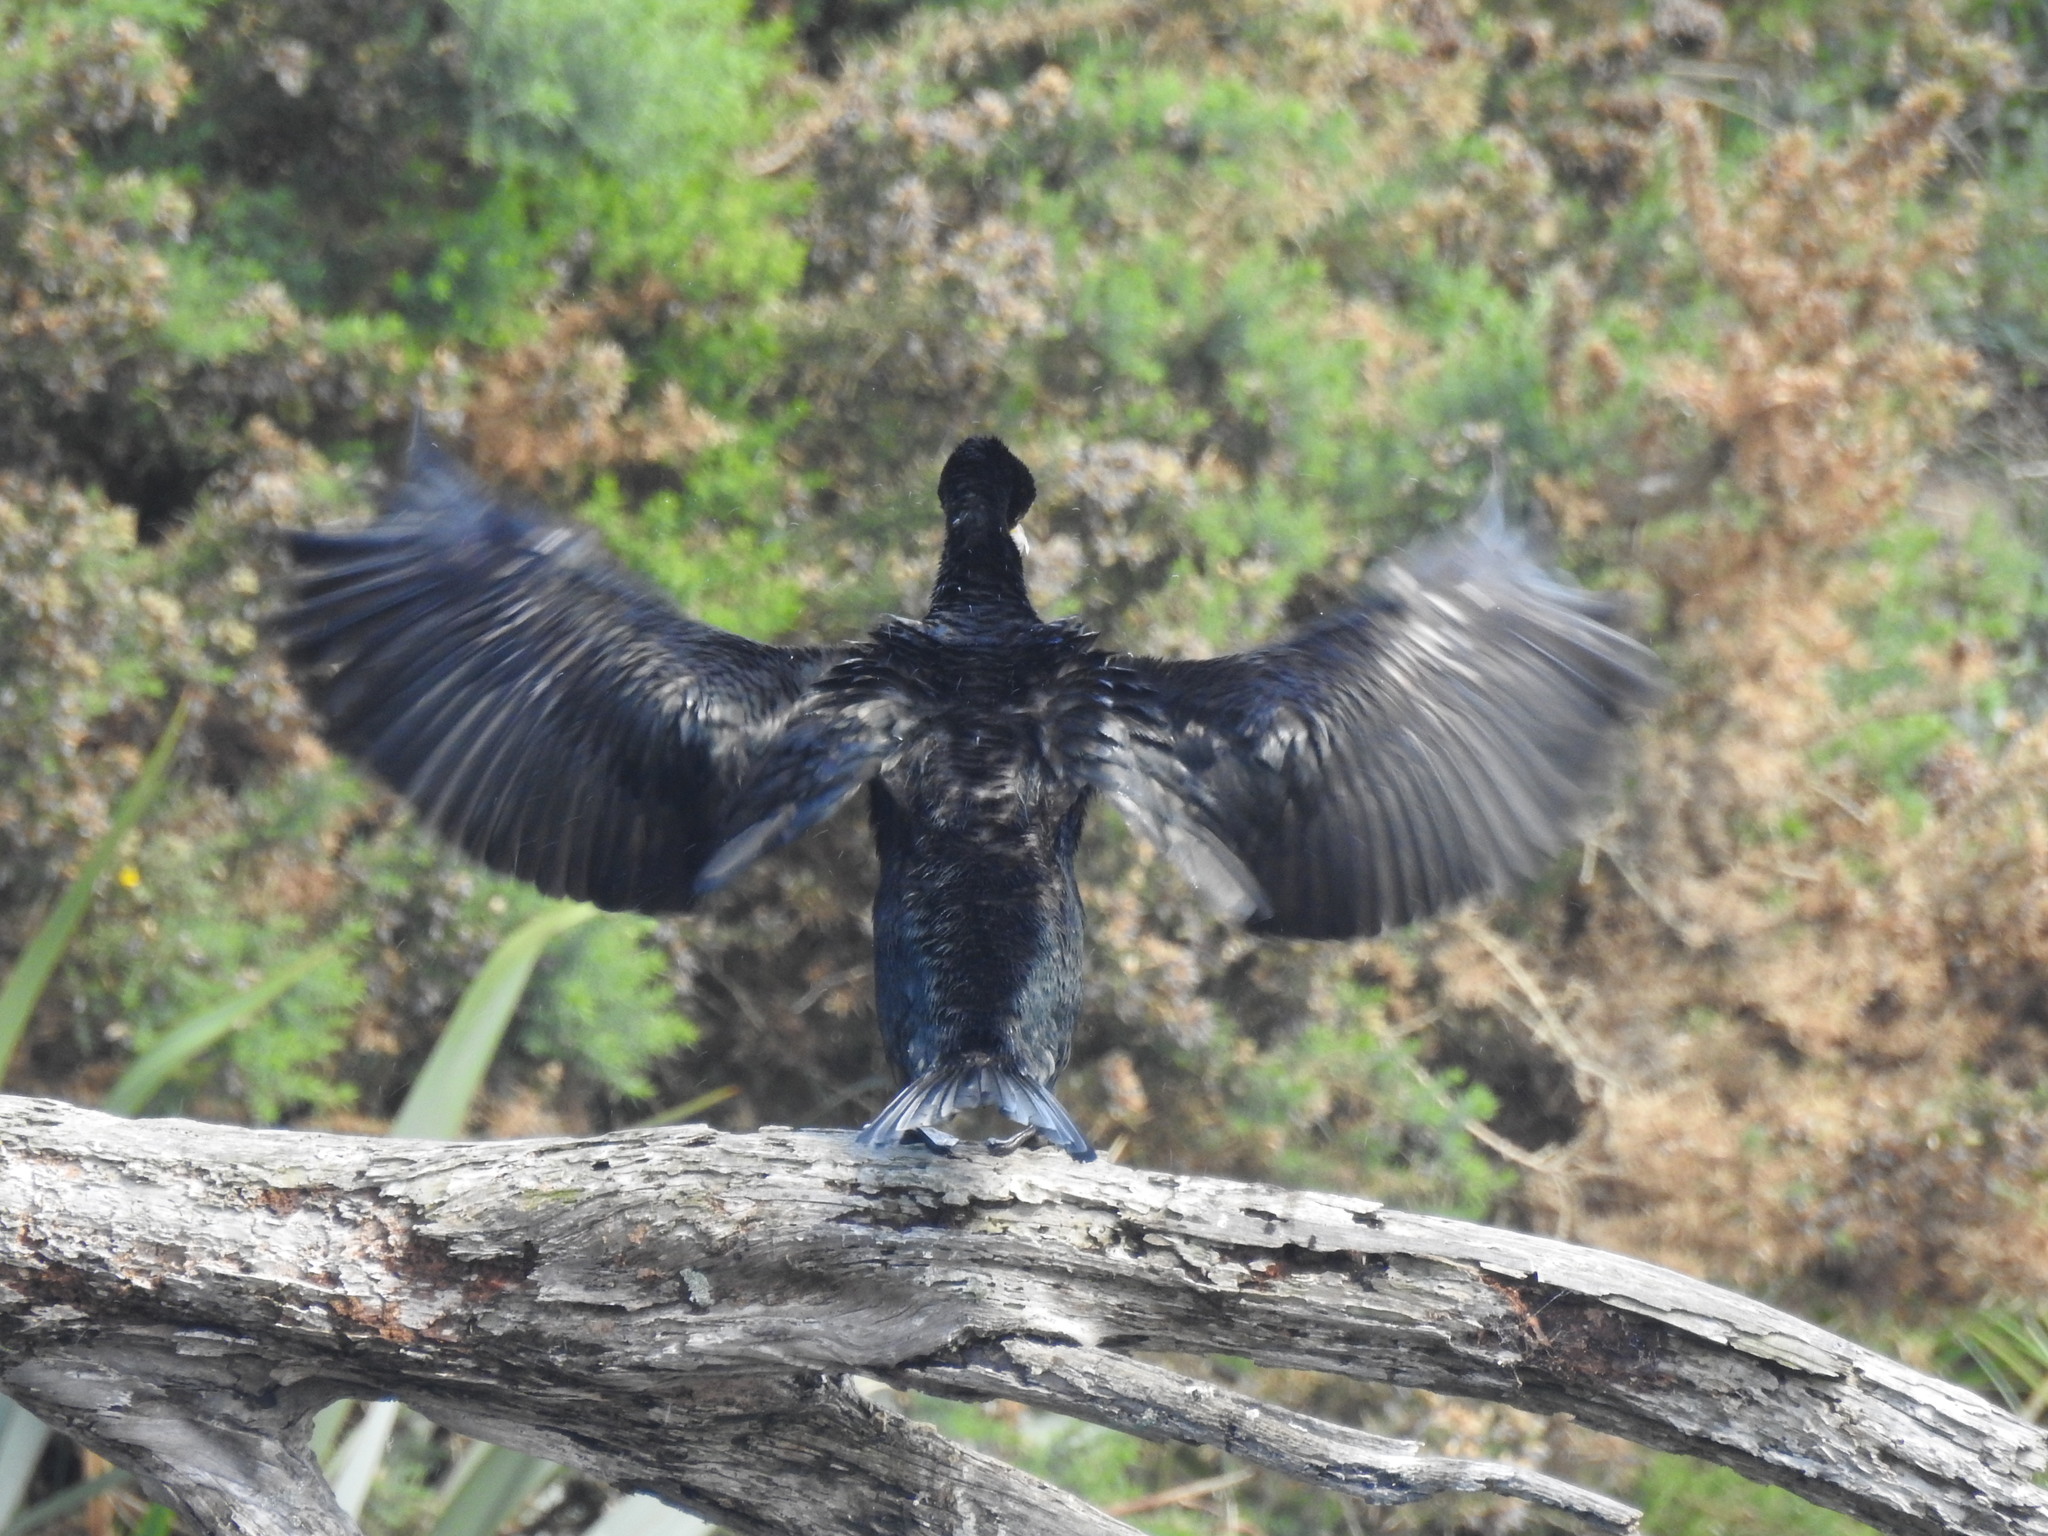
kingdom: Animalia
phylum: Chordata
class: Aves
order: Suliformes
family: Phalacrocoracidae
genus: Phalacrocorax
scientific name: Phalacrocorax carbo
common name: Great cormorant
